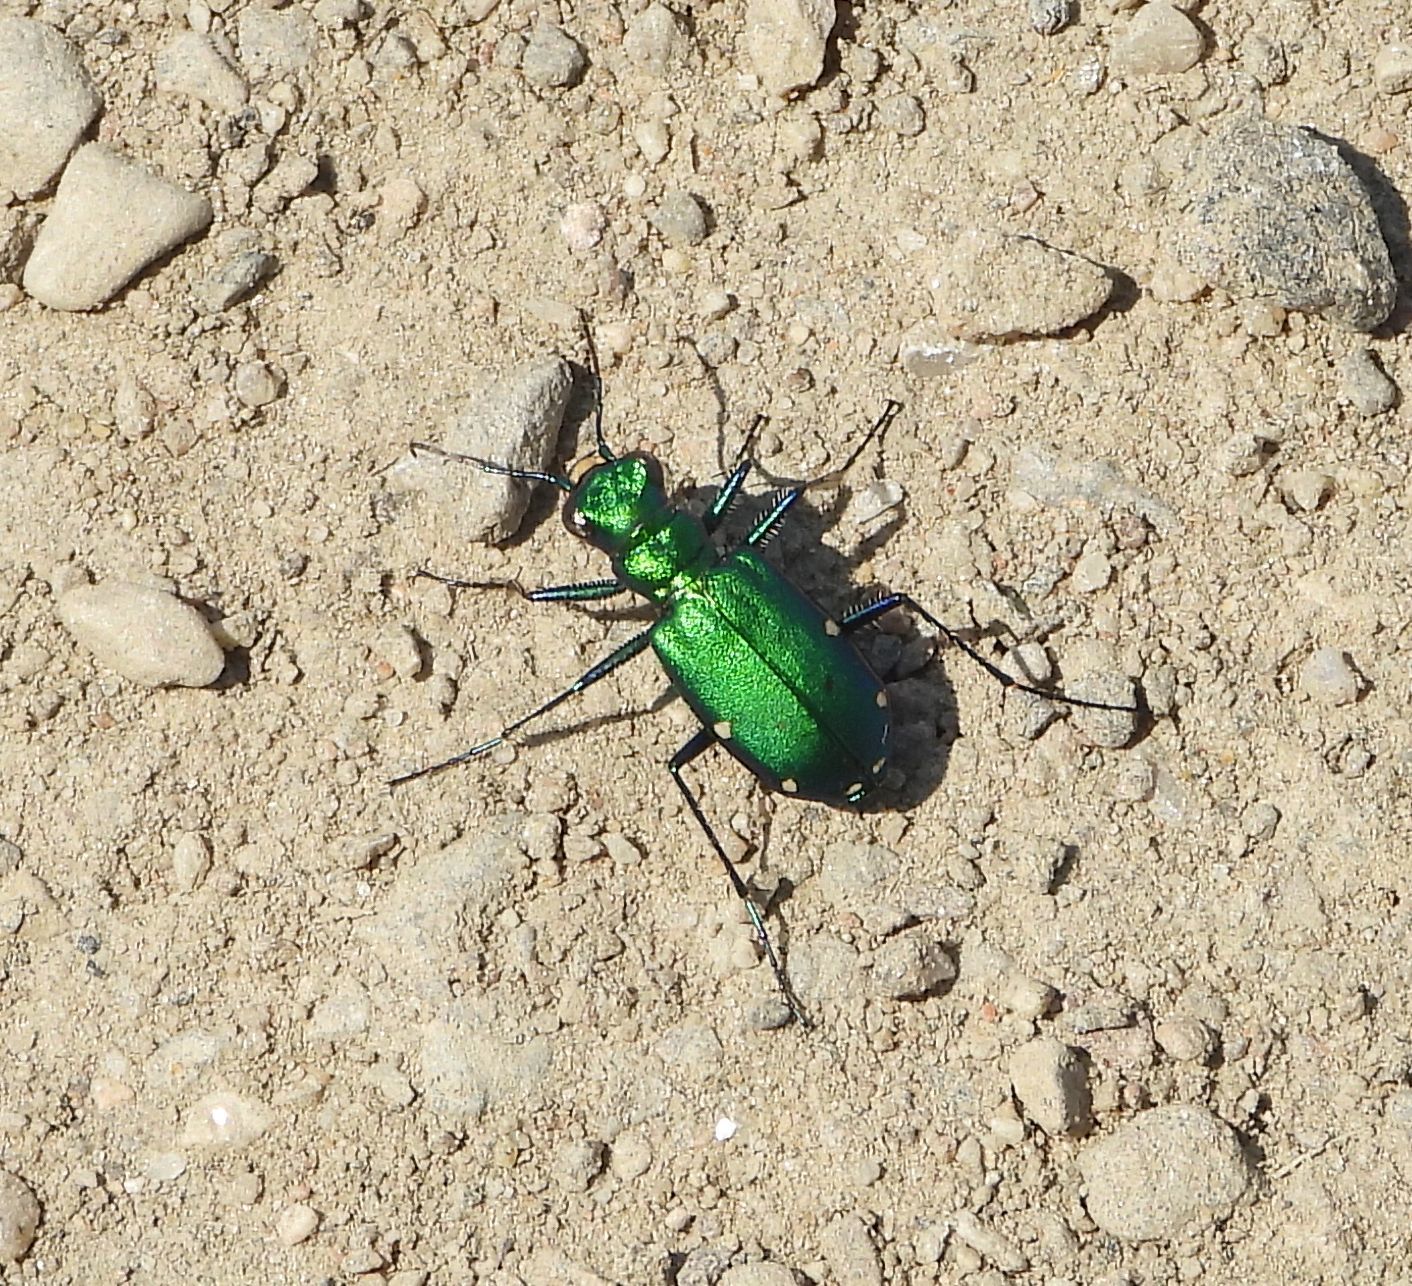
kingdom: Animalia
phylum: Arthropoda
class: Insecta
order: Coleoptera
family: Carabidae
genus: Cicindela
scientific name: Cicindela sexguttata
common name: Six-spotted tiger beetle
